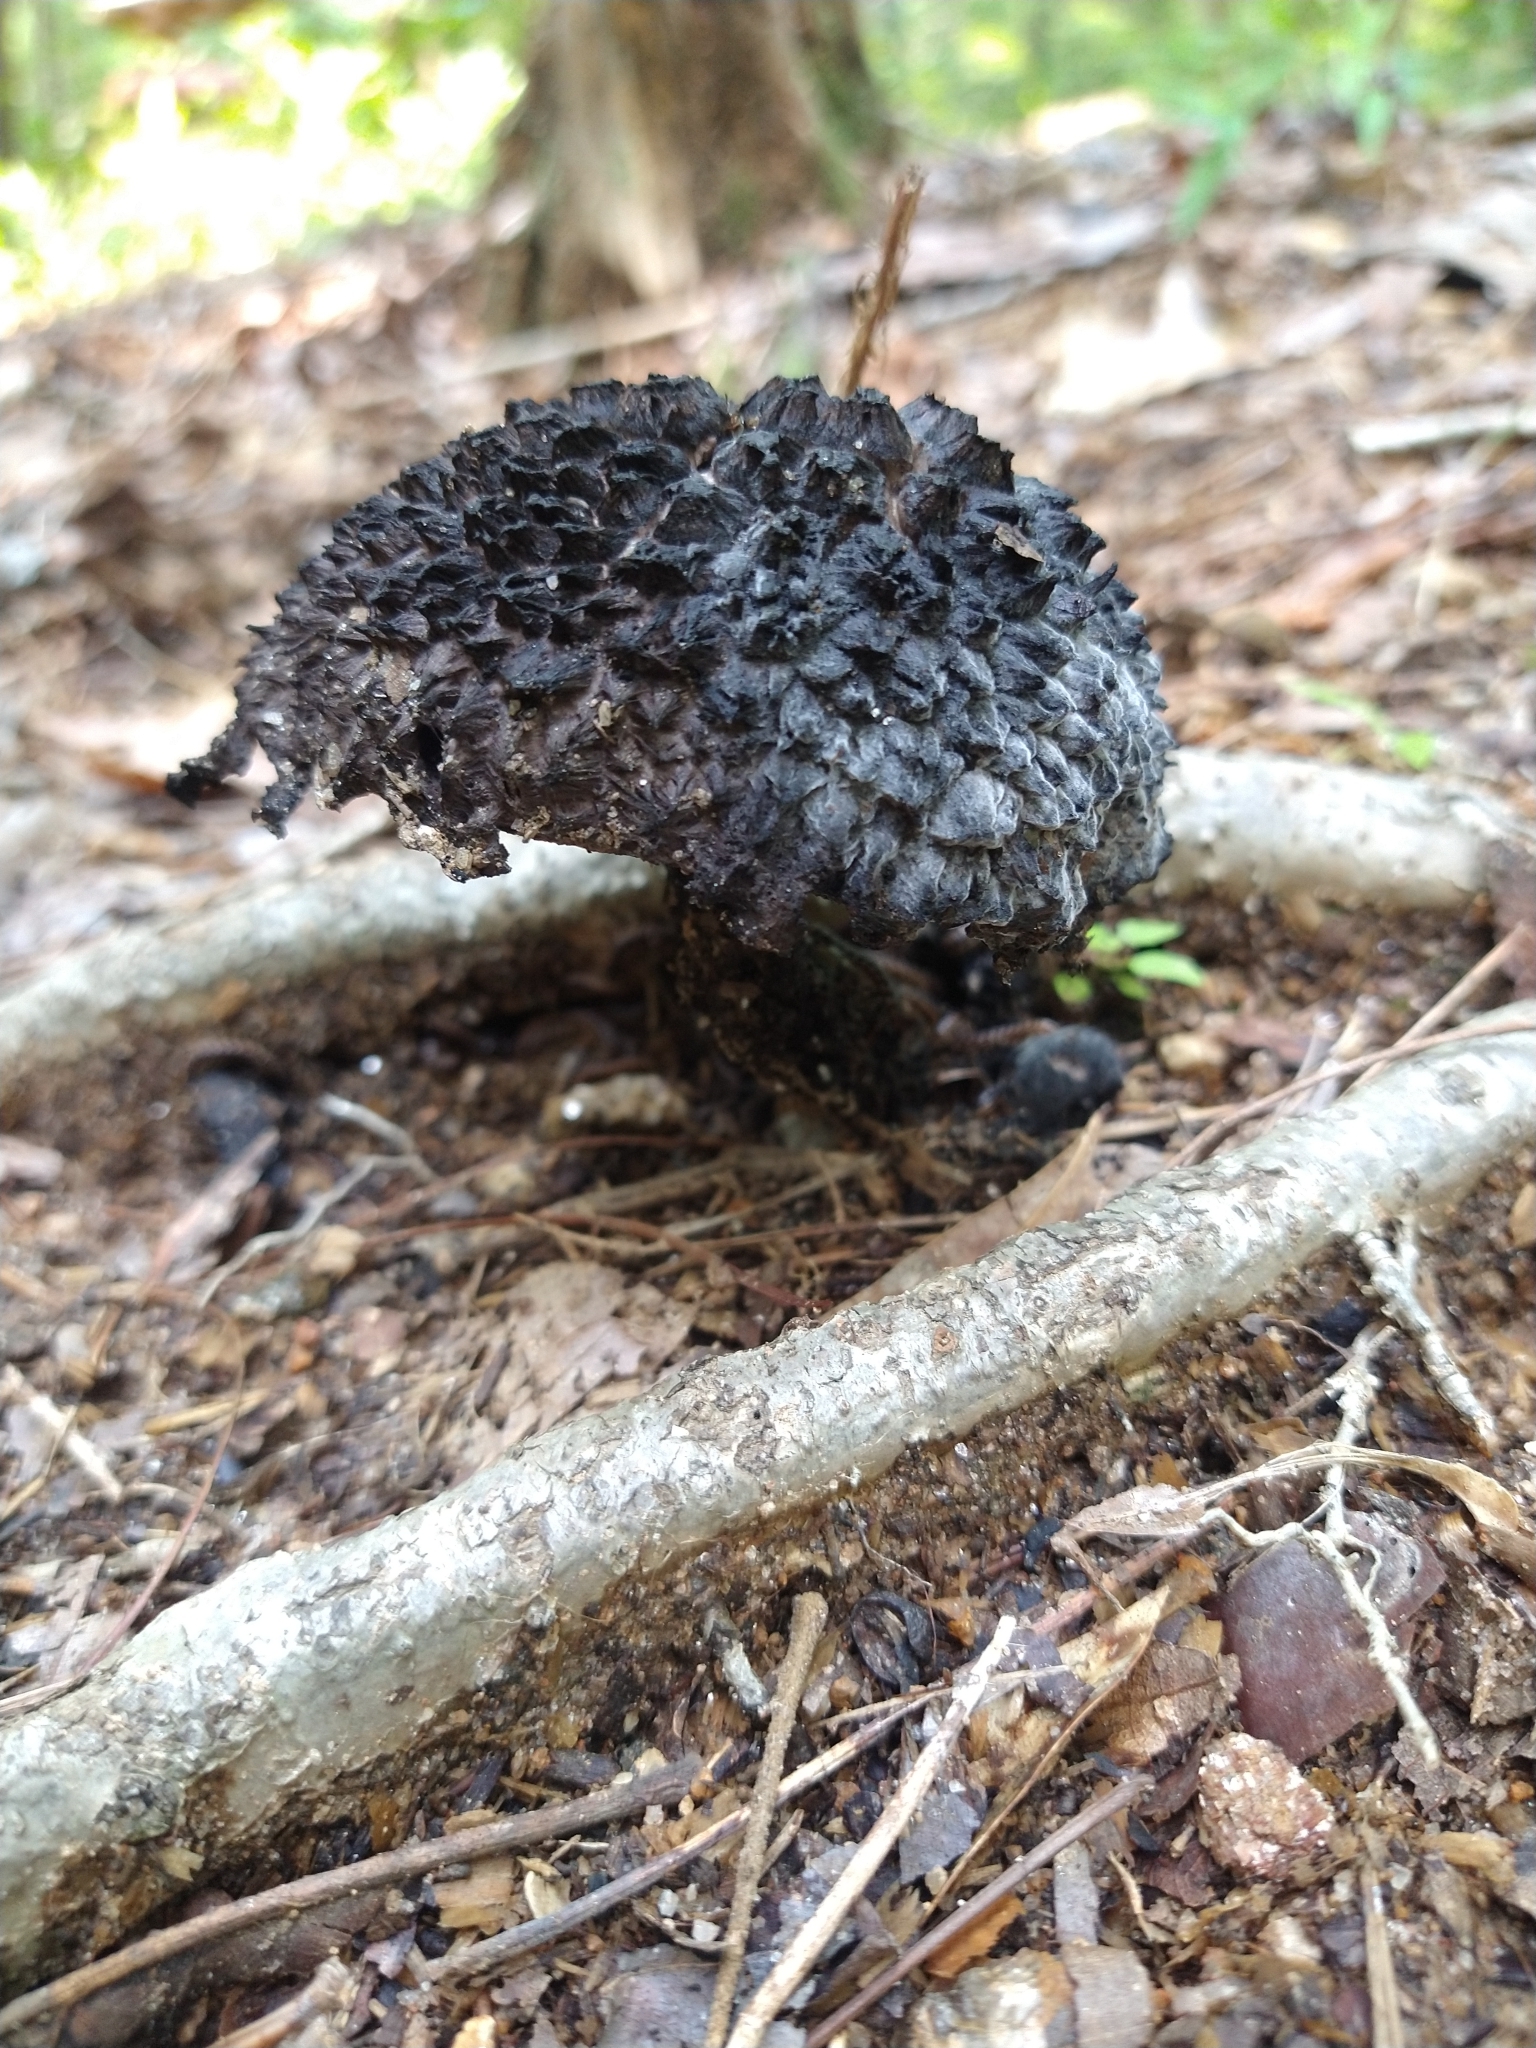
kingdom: Fungi
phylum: Basidiomycota
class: Agaricomycetes
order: Boletales
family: Boletaceae
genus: Strobilomyces
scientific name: Strobilomyces strobilaceus
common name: Old man of the woods
